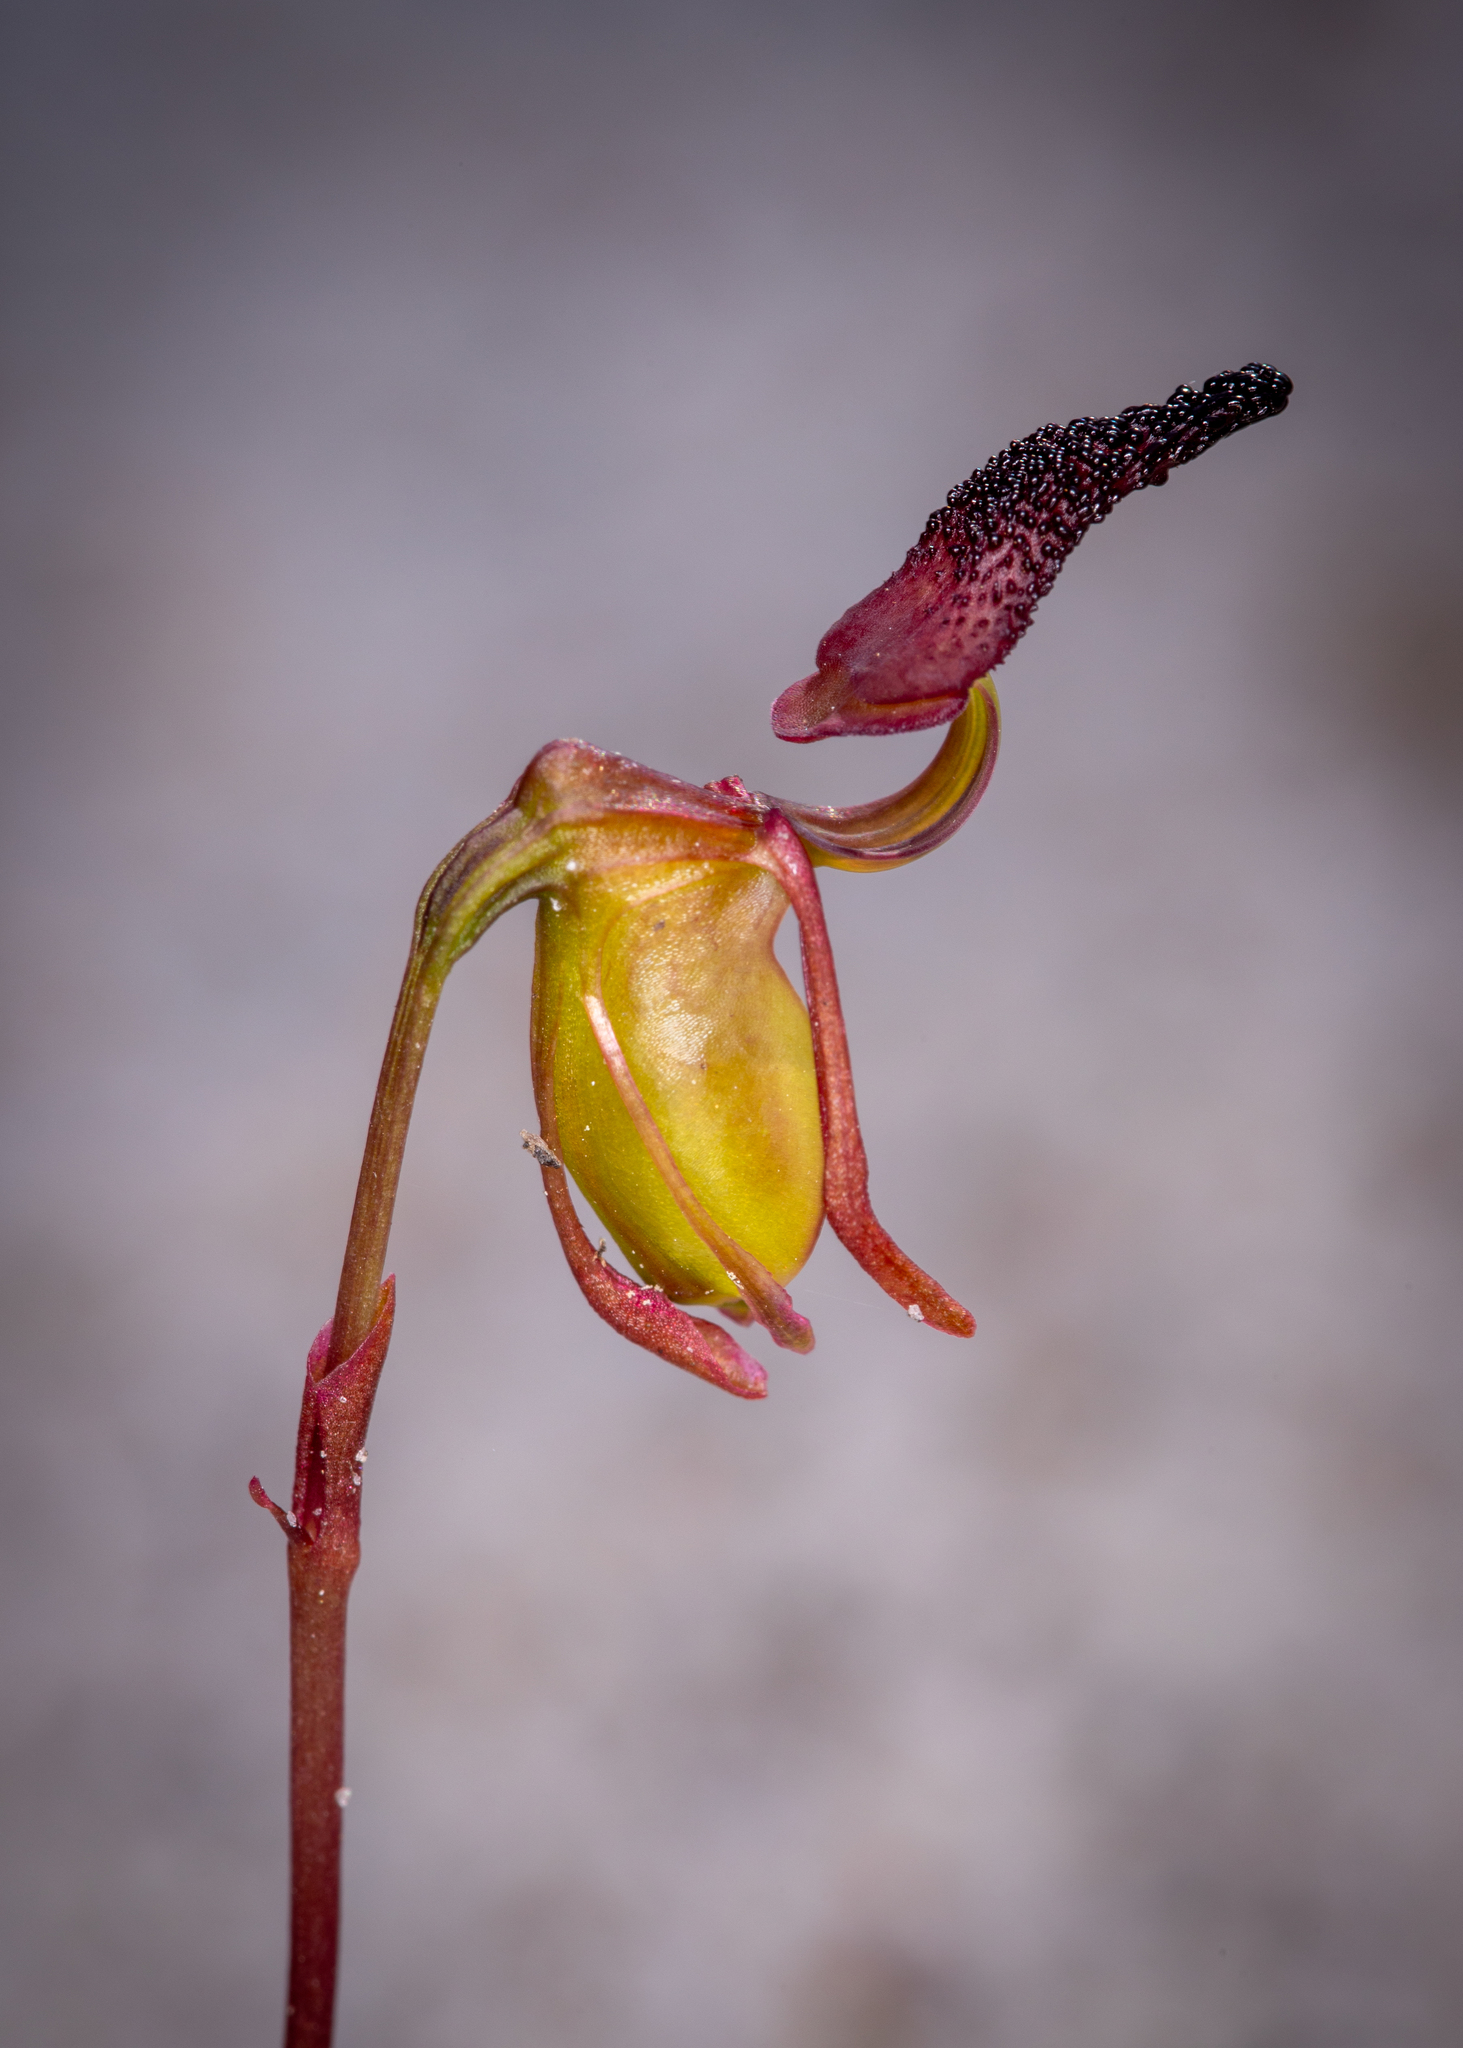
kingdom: Plantae
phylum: Tracheophyta
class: Liliopsida
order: Asparagales
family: Orchidaceae
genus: Caleana
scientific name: Caleana nigrita
